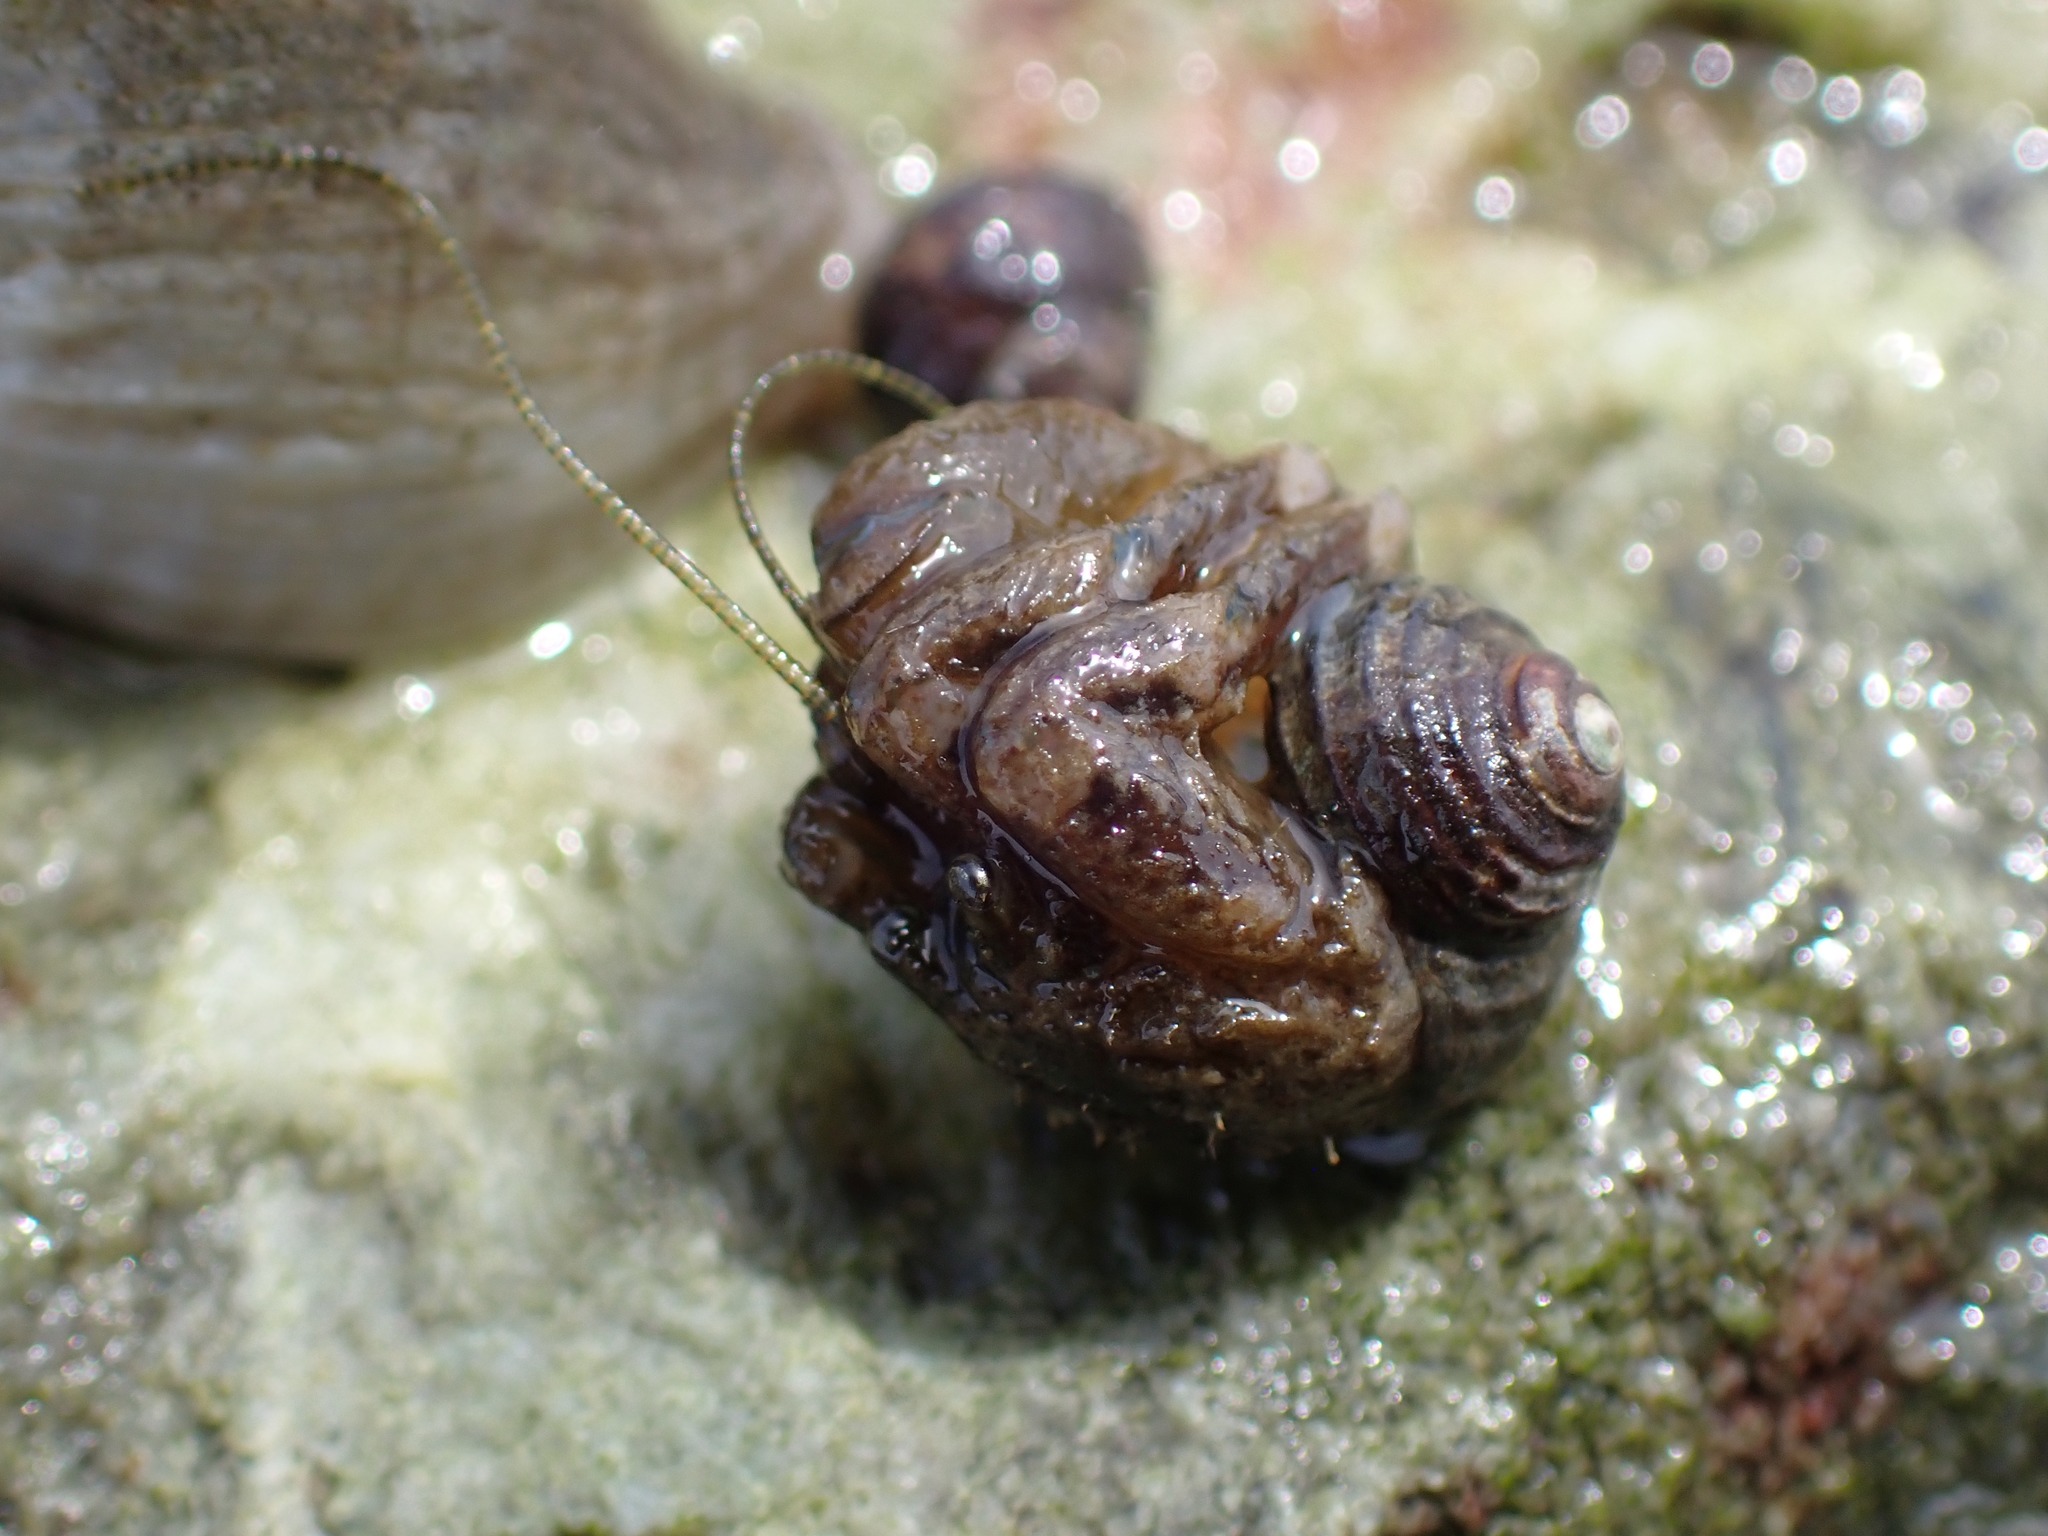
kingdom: Animalia
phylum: Arthropoda
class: Malacostraca
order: Decapoda
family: Paguridae
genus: Pagurus
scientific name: Pagurus hirsutiusculus
